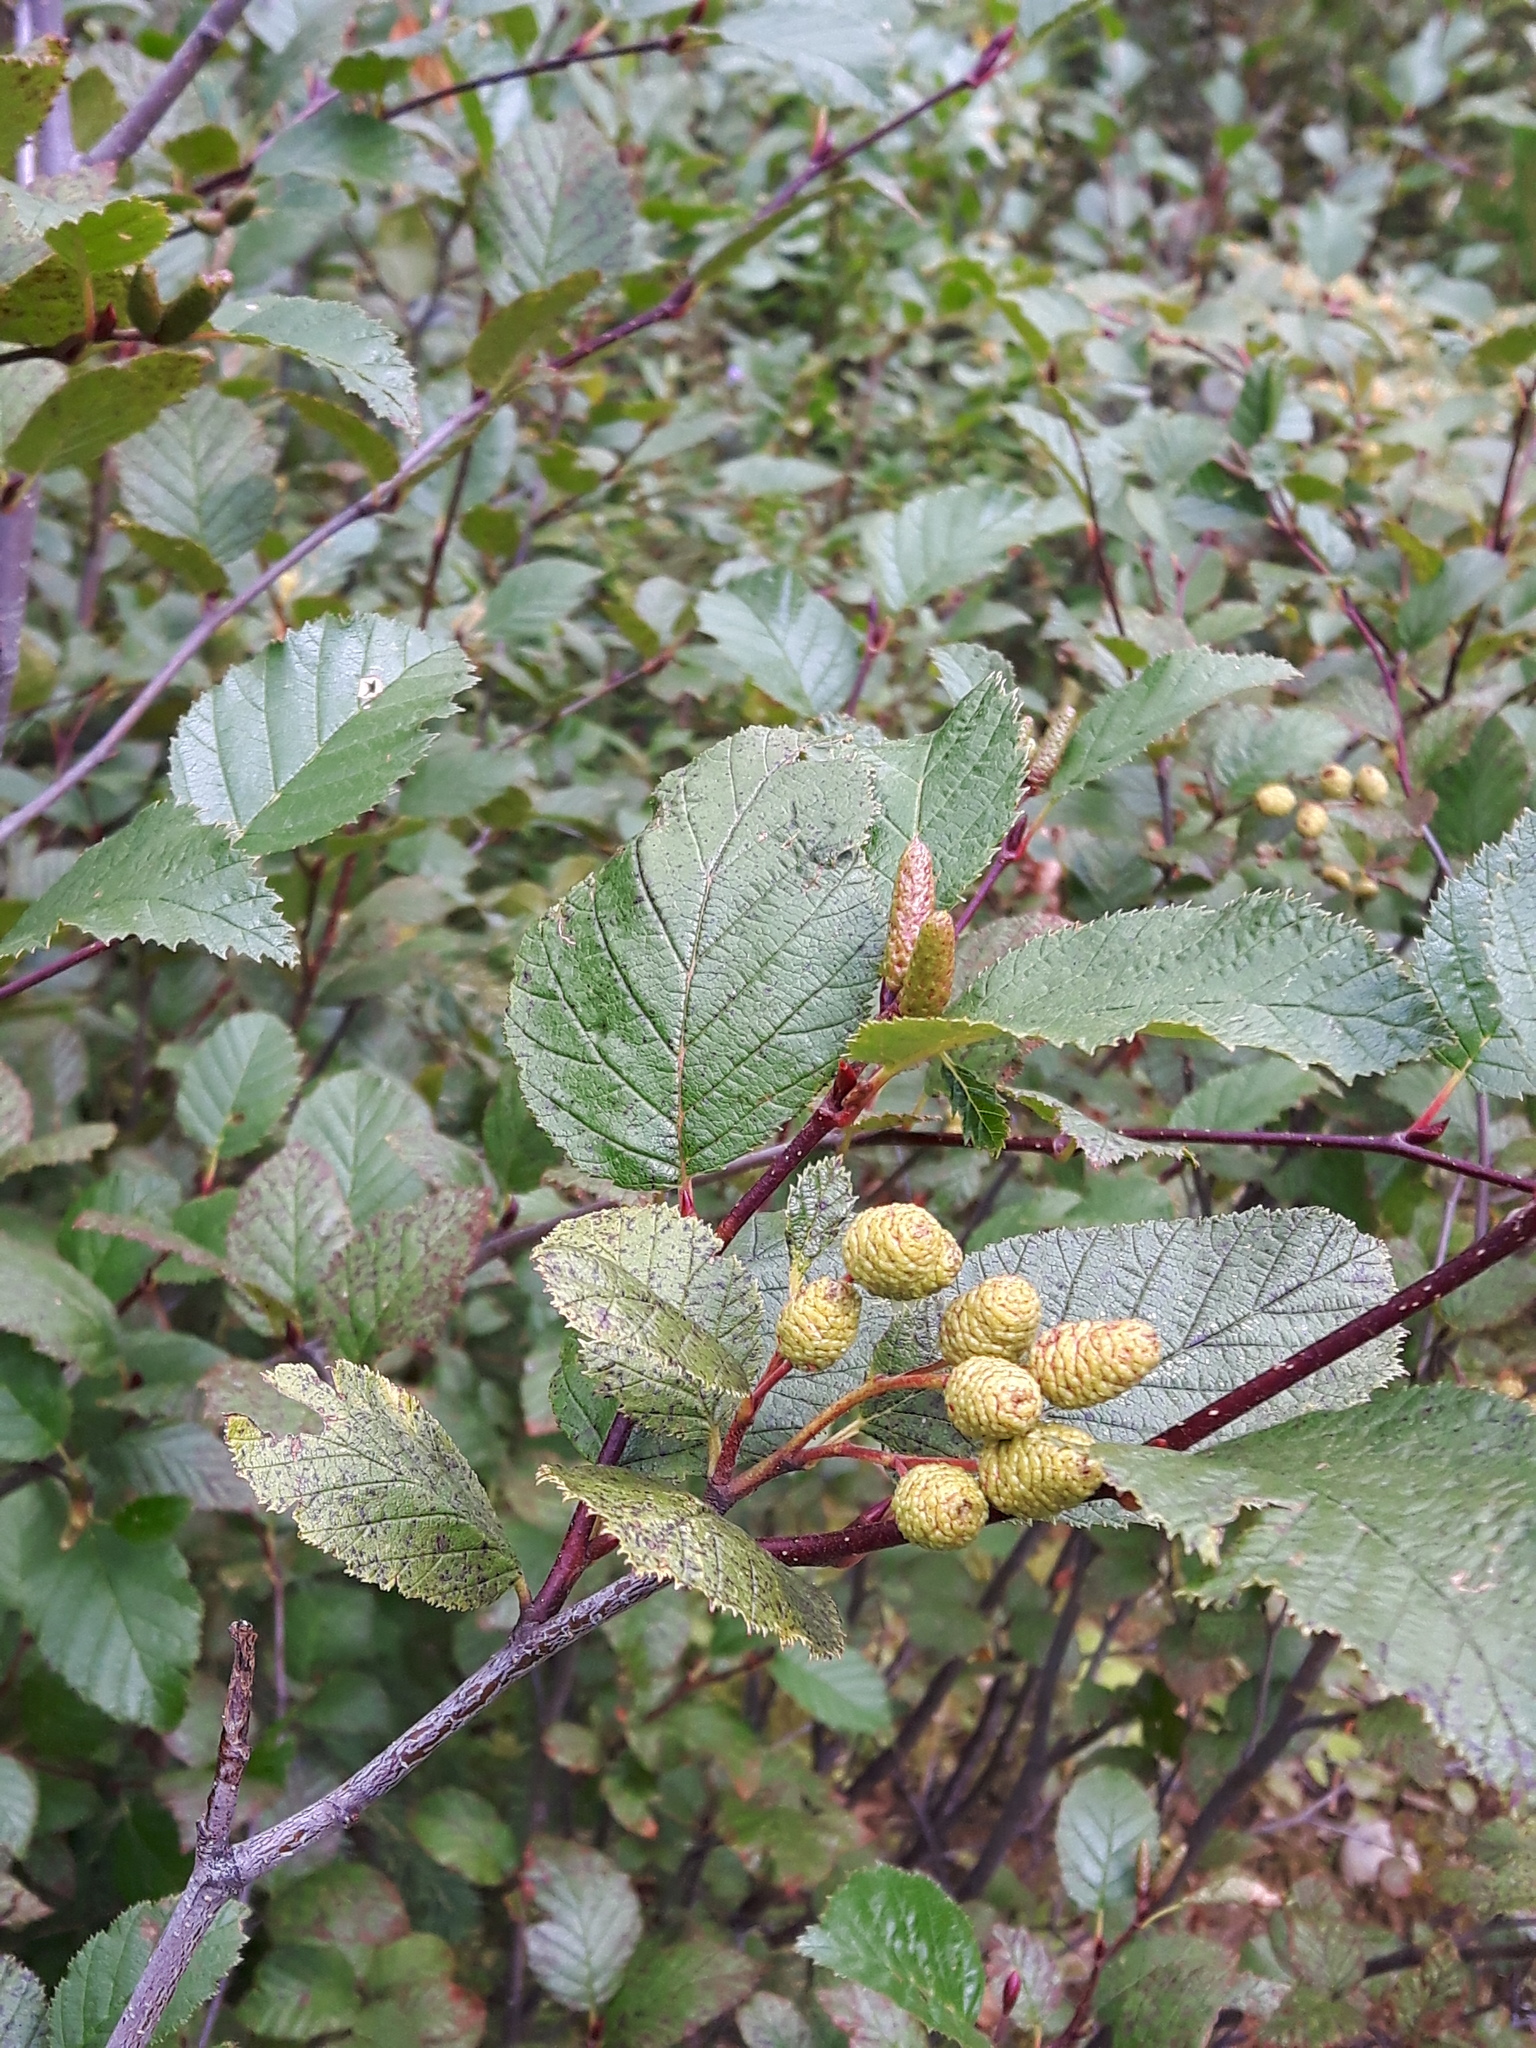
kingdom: Plantae
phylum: Tracheophyta
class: Magnoliopsida
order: Fagales
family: Betulaceae
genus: Alnus
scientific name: Alnus alnobetula
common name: Green alder
